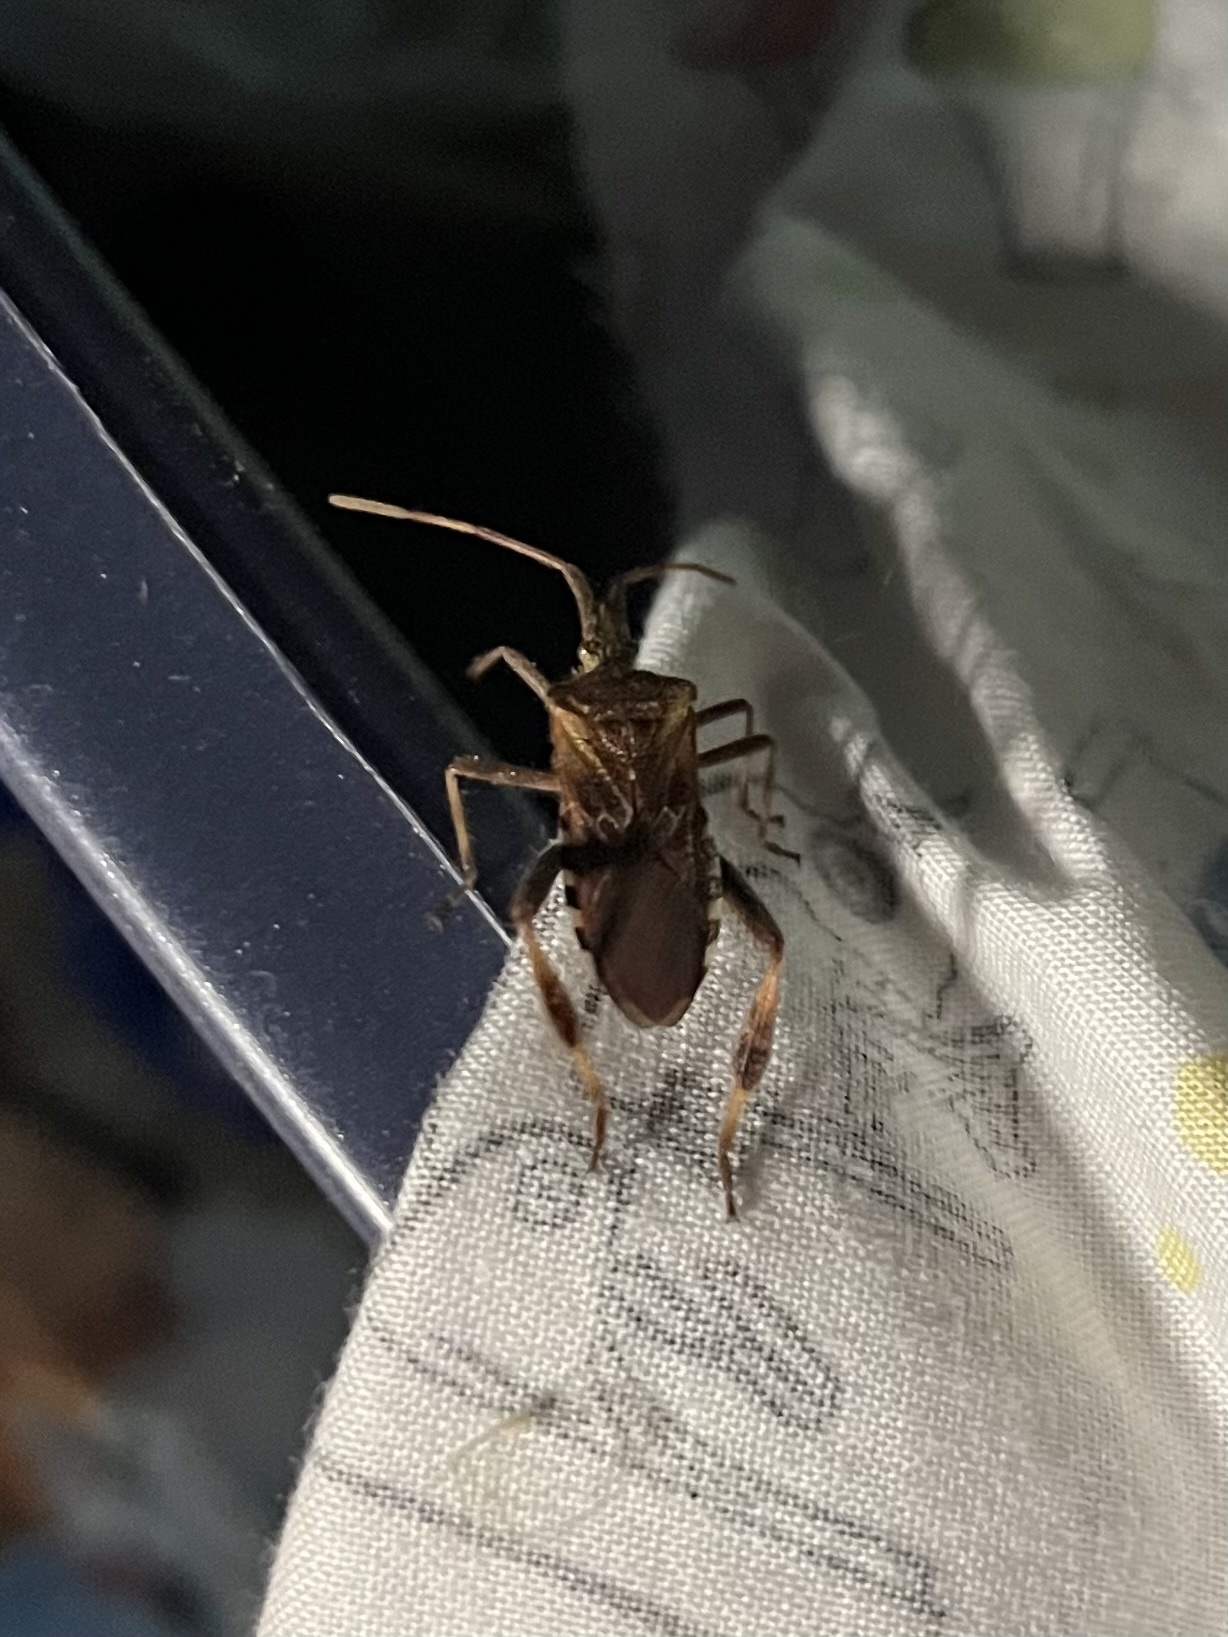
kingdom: Animalia
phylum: Arthropoda
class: Insecta
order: Hemiptera
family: Coreidae
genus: Leptoglossus
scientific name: Leptoglossus occidentalis
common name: Western conifer-seed bug
